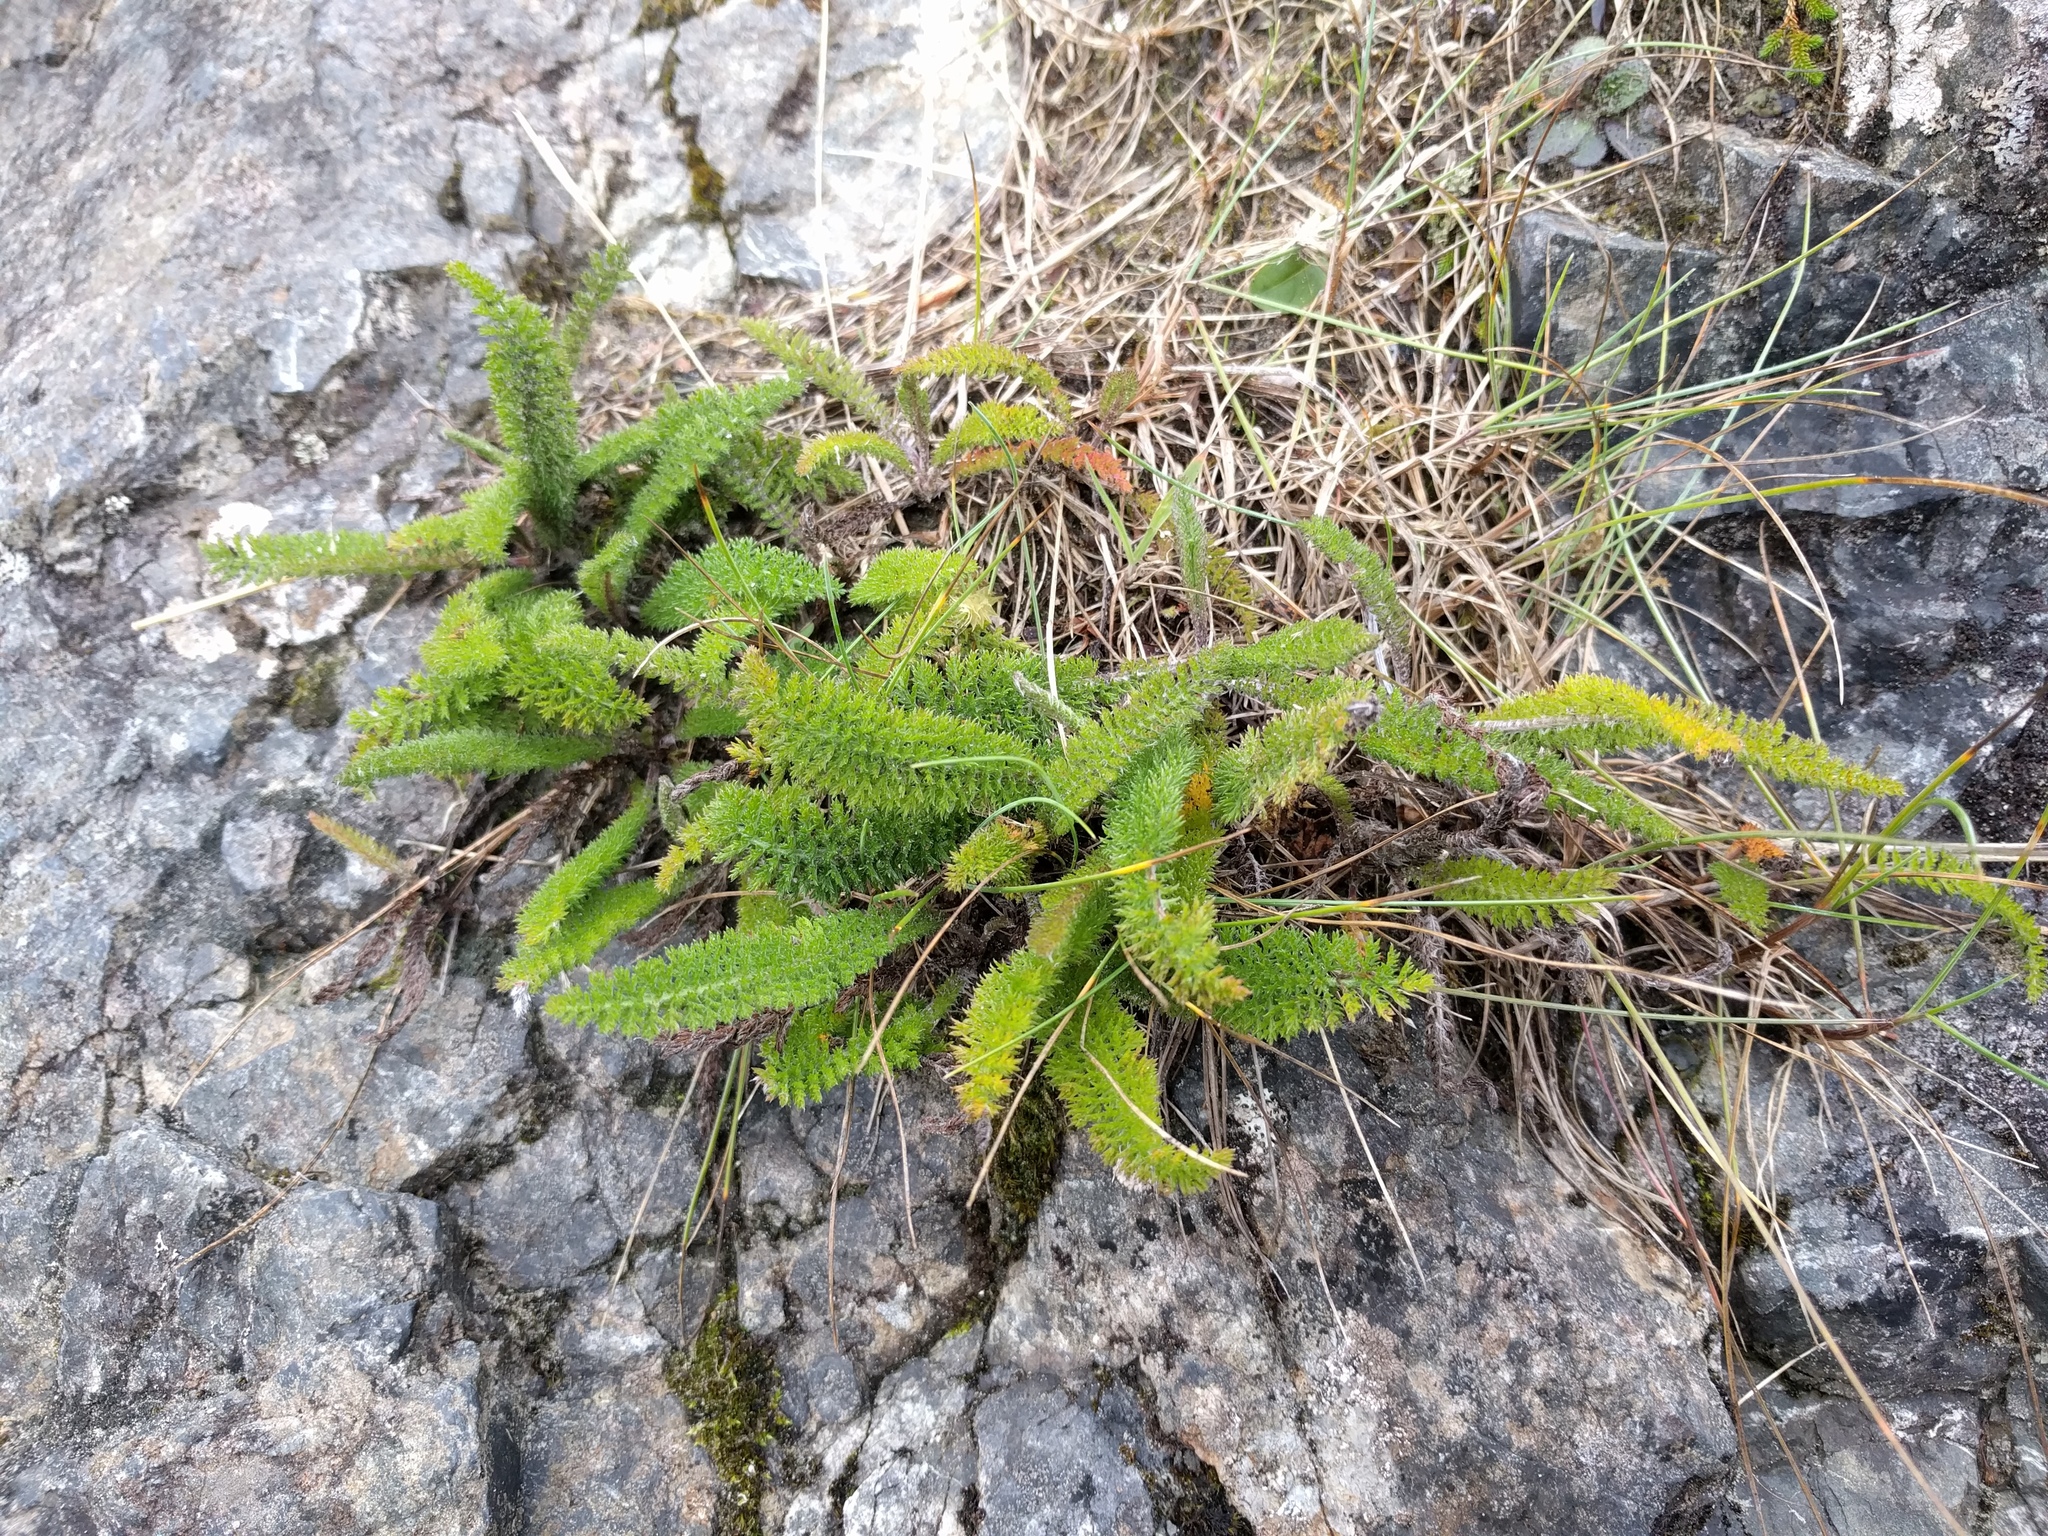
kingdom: Plantae
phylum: Tracheophyta
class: Magnoliopsida
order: Asterales
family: Asteraceae
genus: Achillea
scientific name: Achillea millefolium
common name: Yarrow
